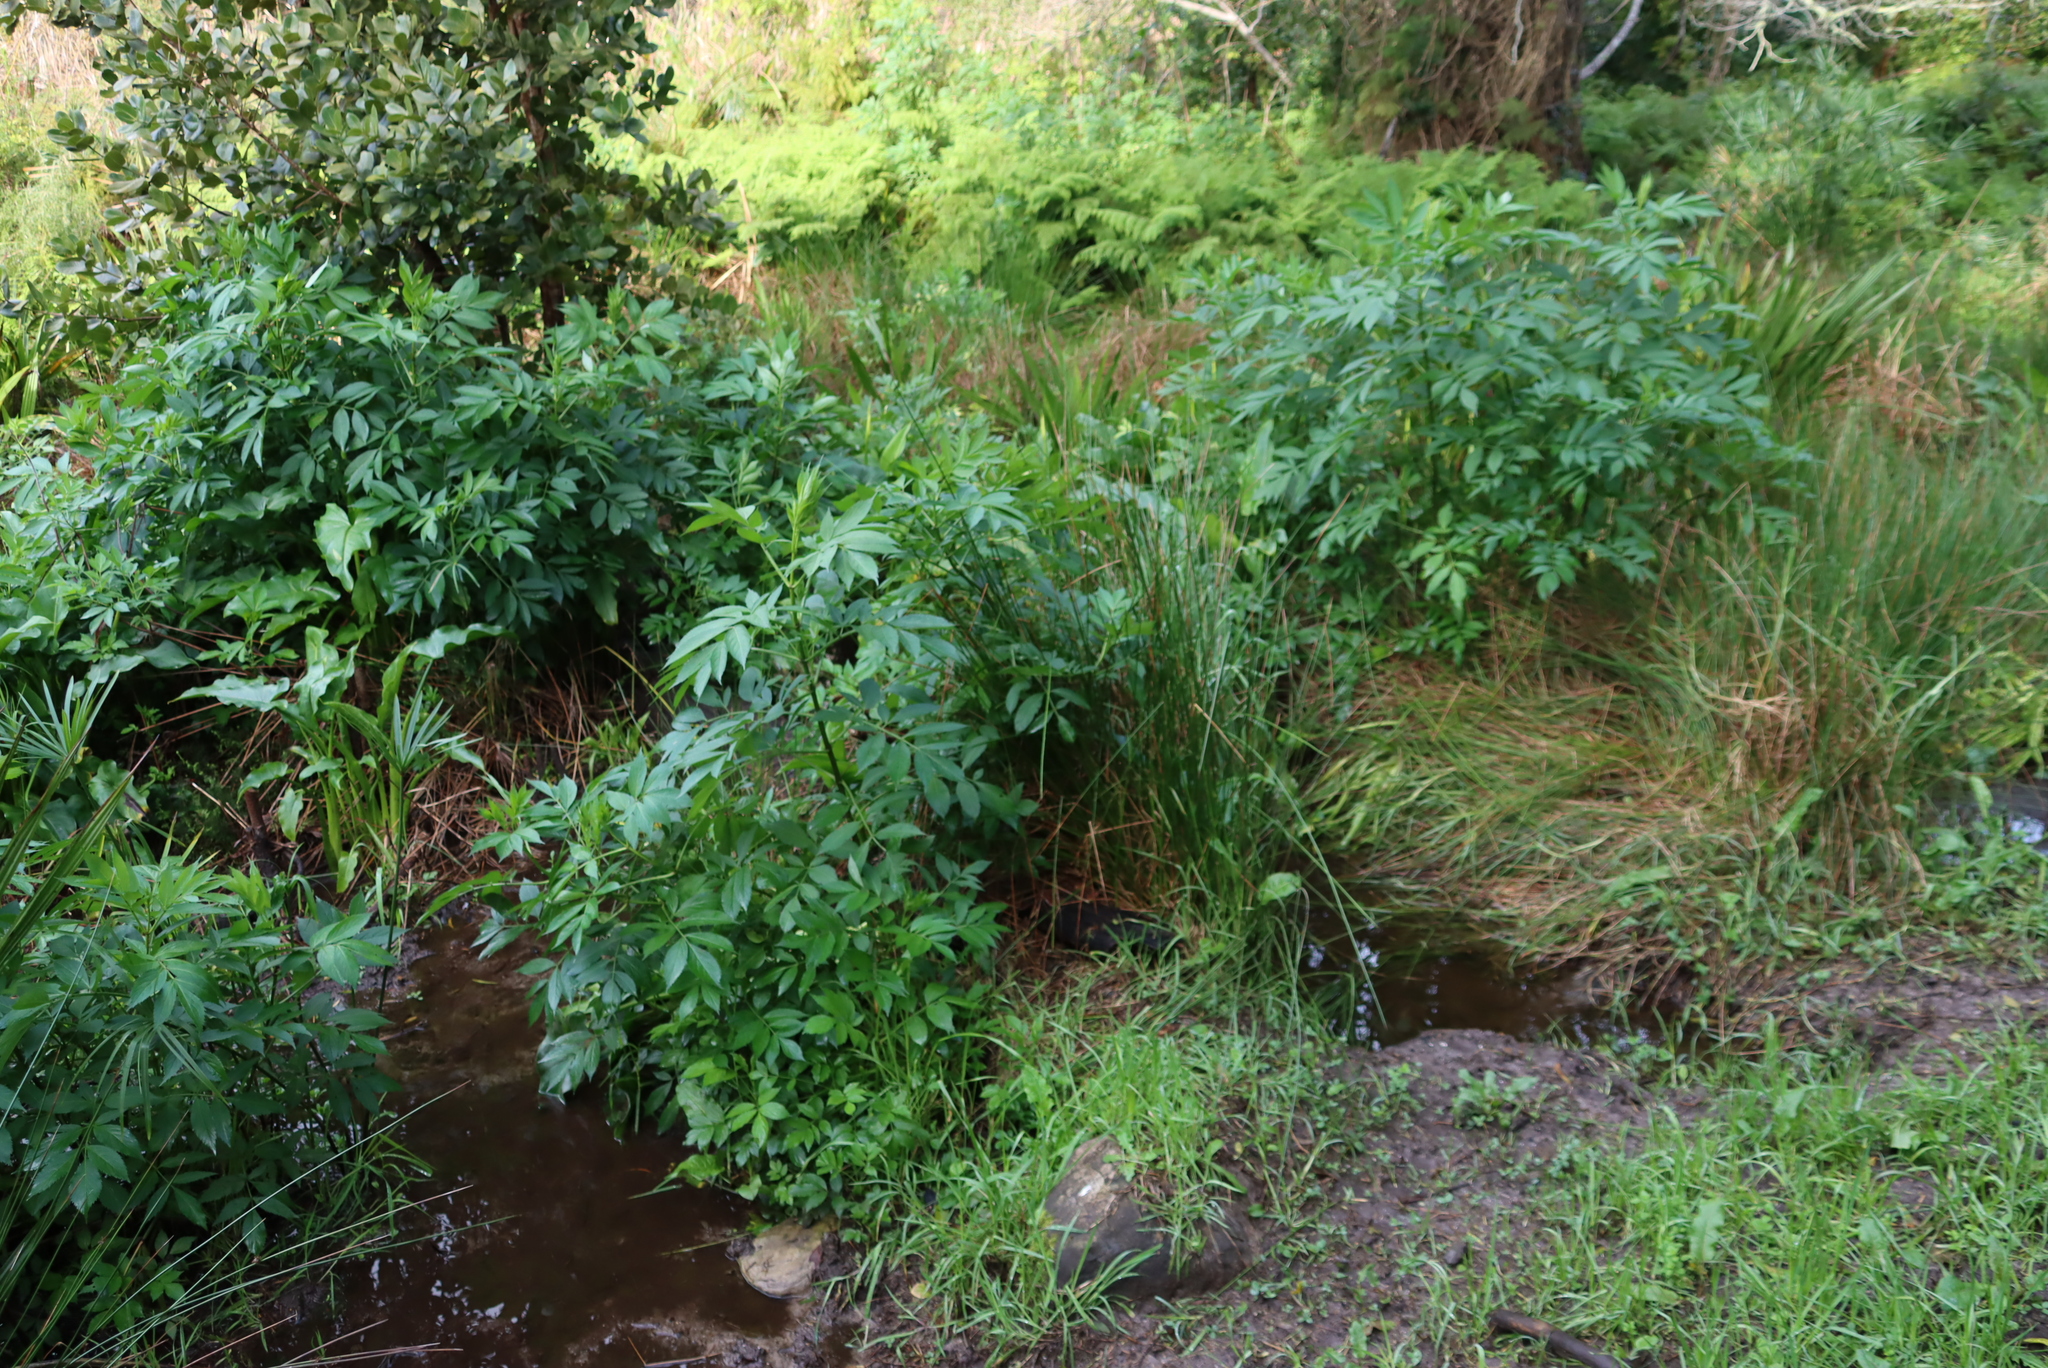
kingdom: Plantae
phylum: Tracheophyta
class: Magnoliopsida
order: Dipsacales
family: Viburnaceae
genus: Sambucus
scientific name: Sambucus canadensis
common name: American elder
